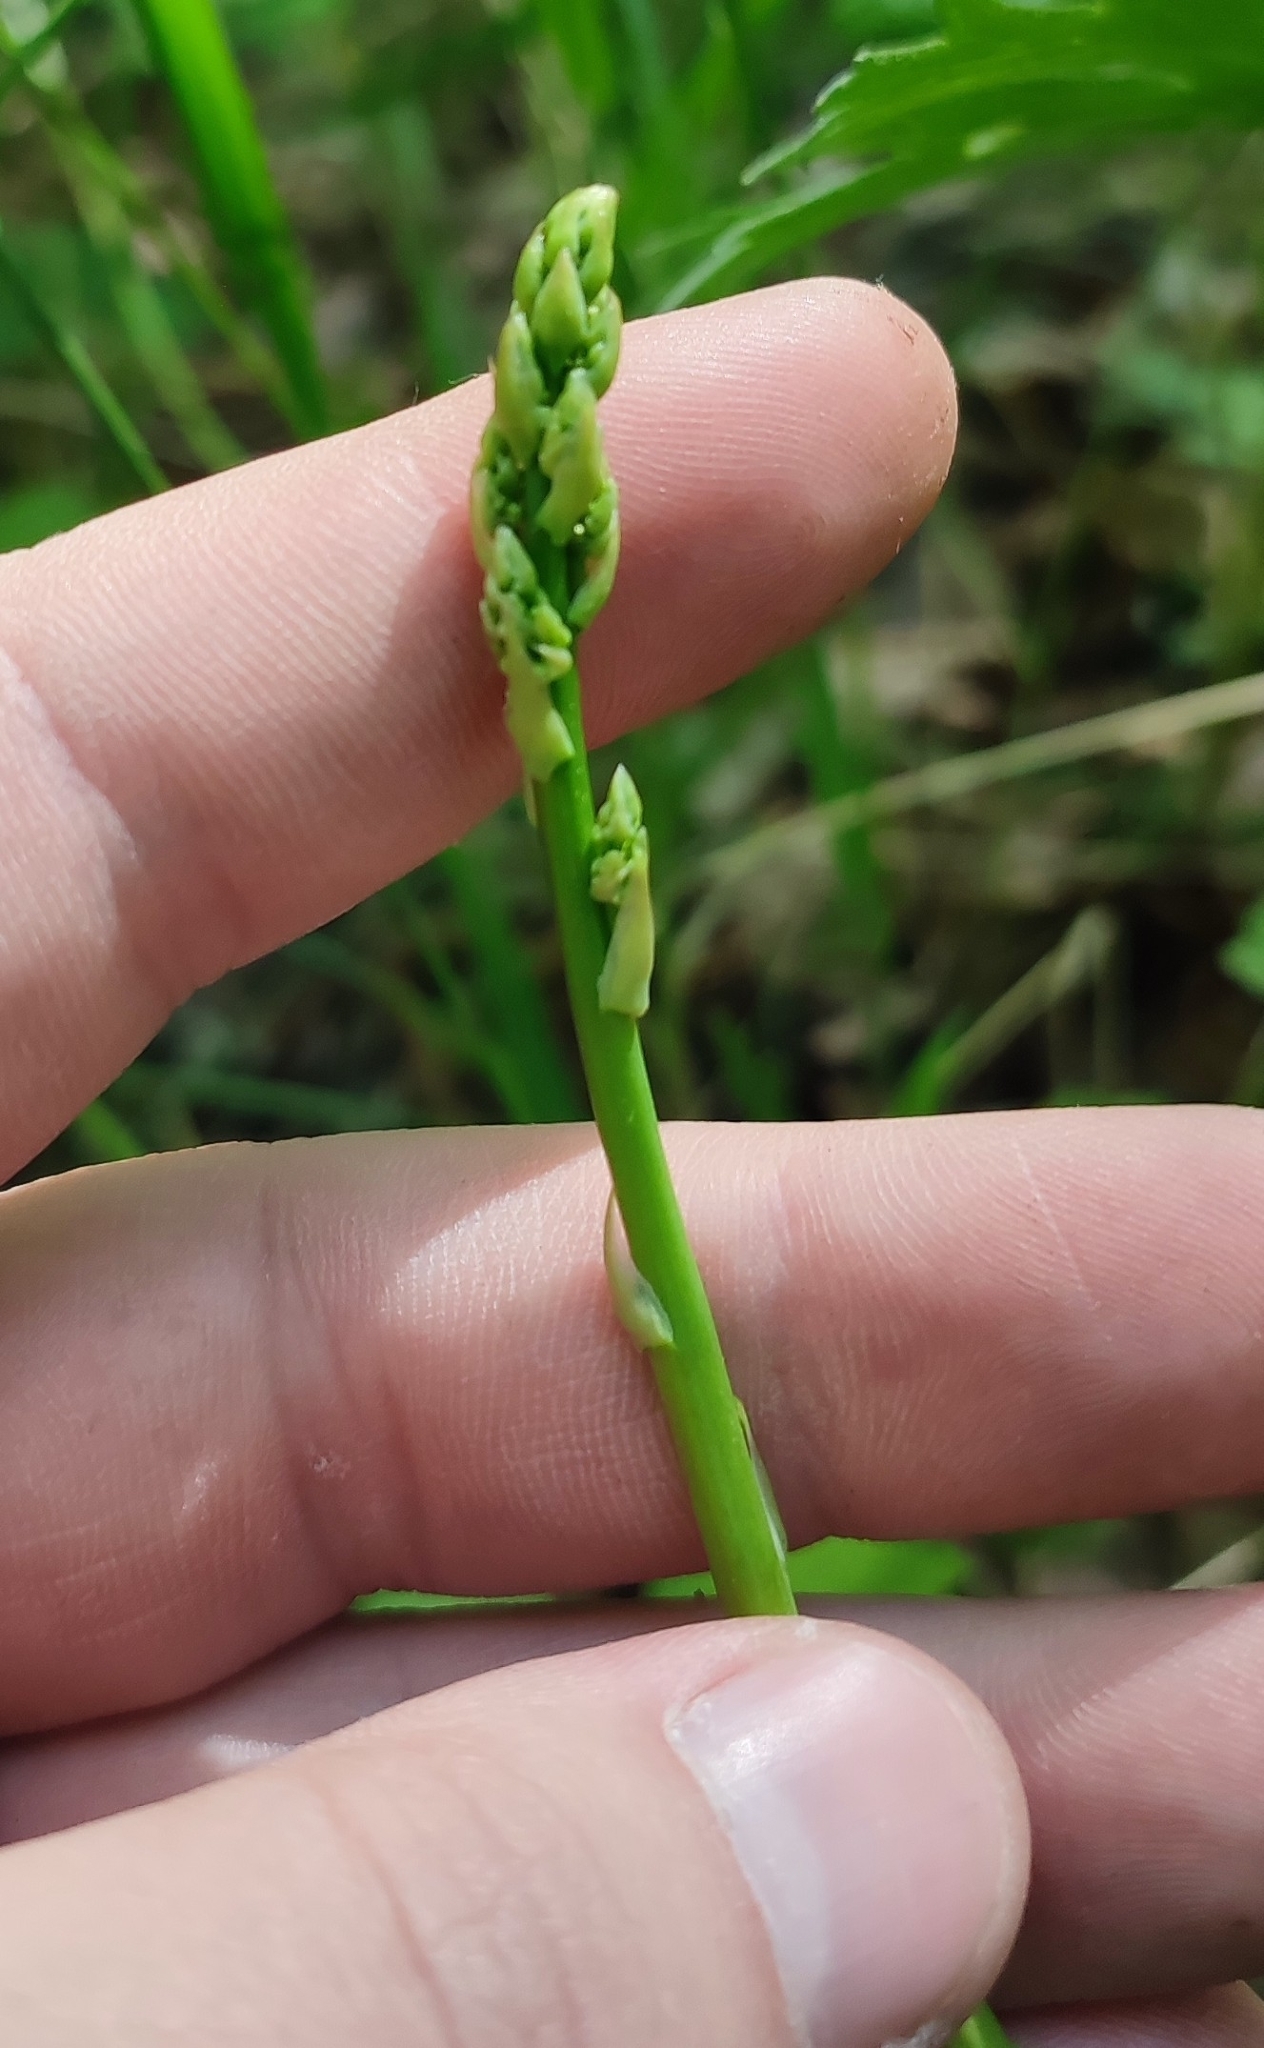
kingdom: Plantae
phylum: Tracheophyta
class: Liliopsida
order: Asparagales
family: Asparagaceae
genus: Asparagus
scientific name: Asparagus officinalis
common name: Garden asparagus
